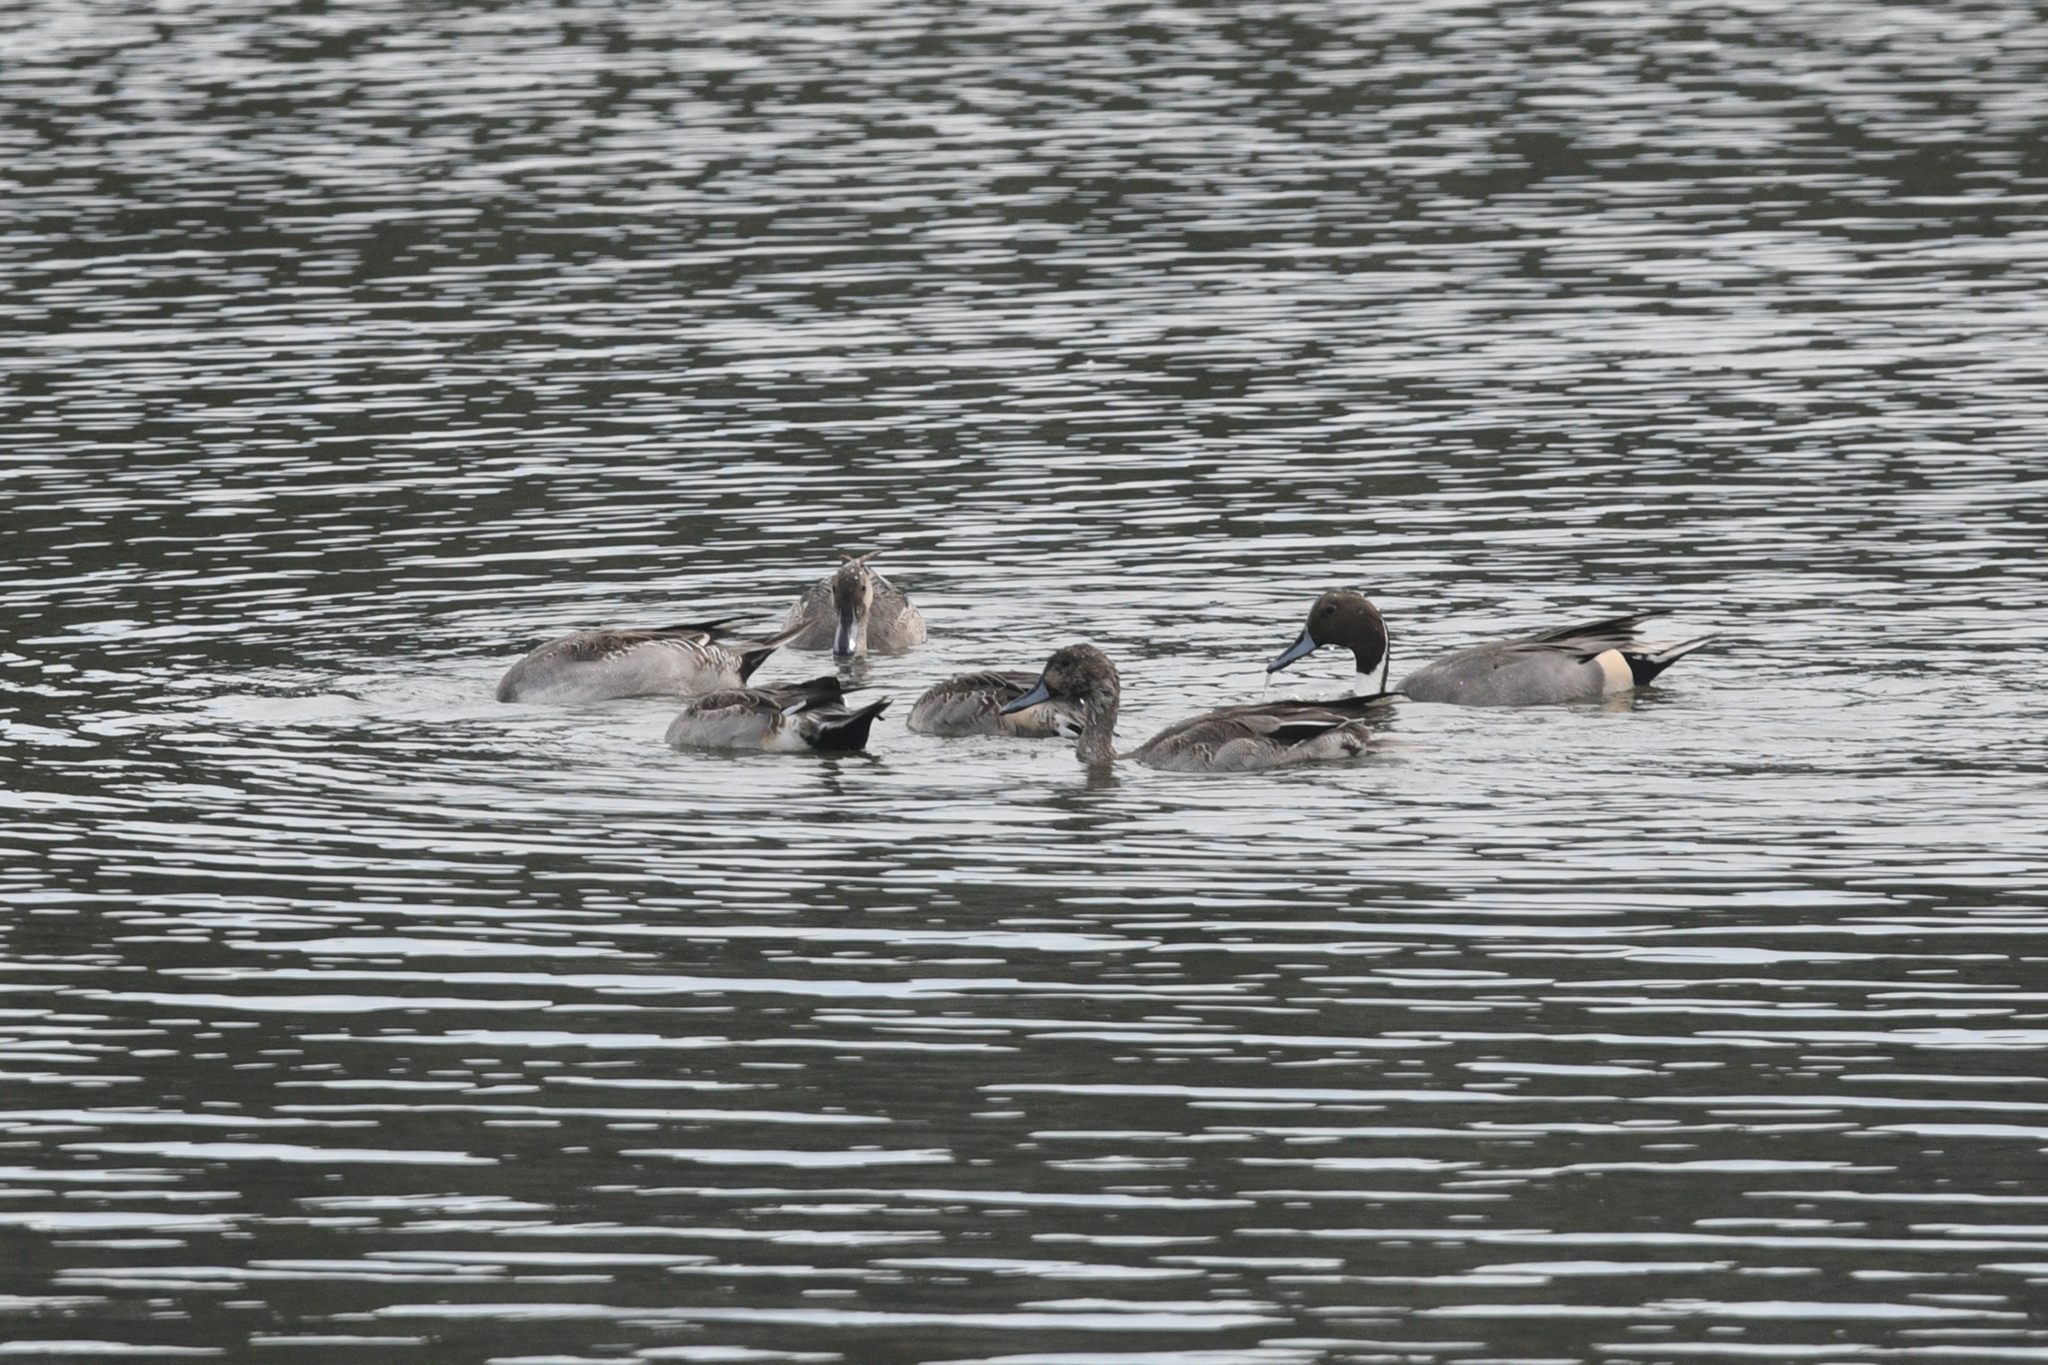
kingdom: Animalia
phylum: Chordata
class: Aves
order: Anseriformes
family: Anatidae
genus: Anas
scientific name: Anas acuta
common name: Northern pintail
